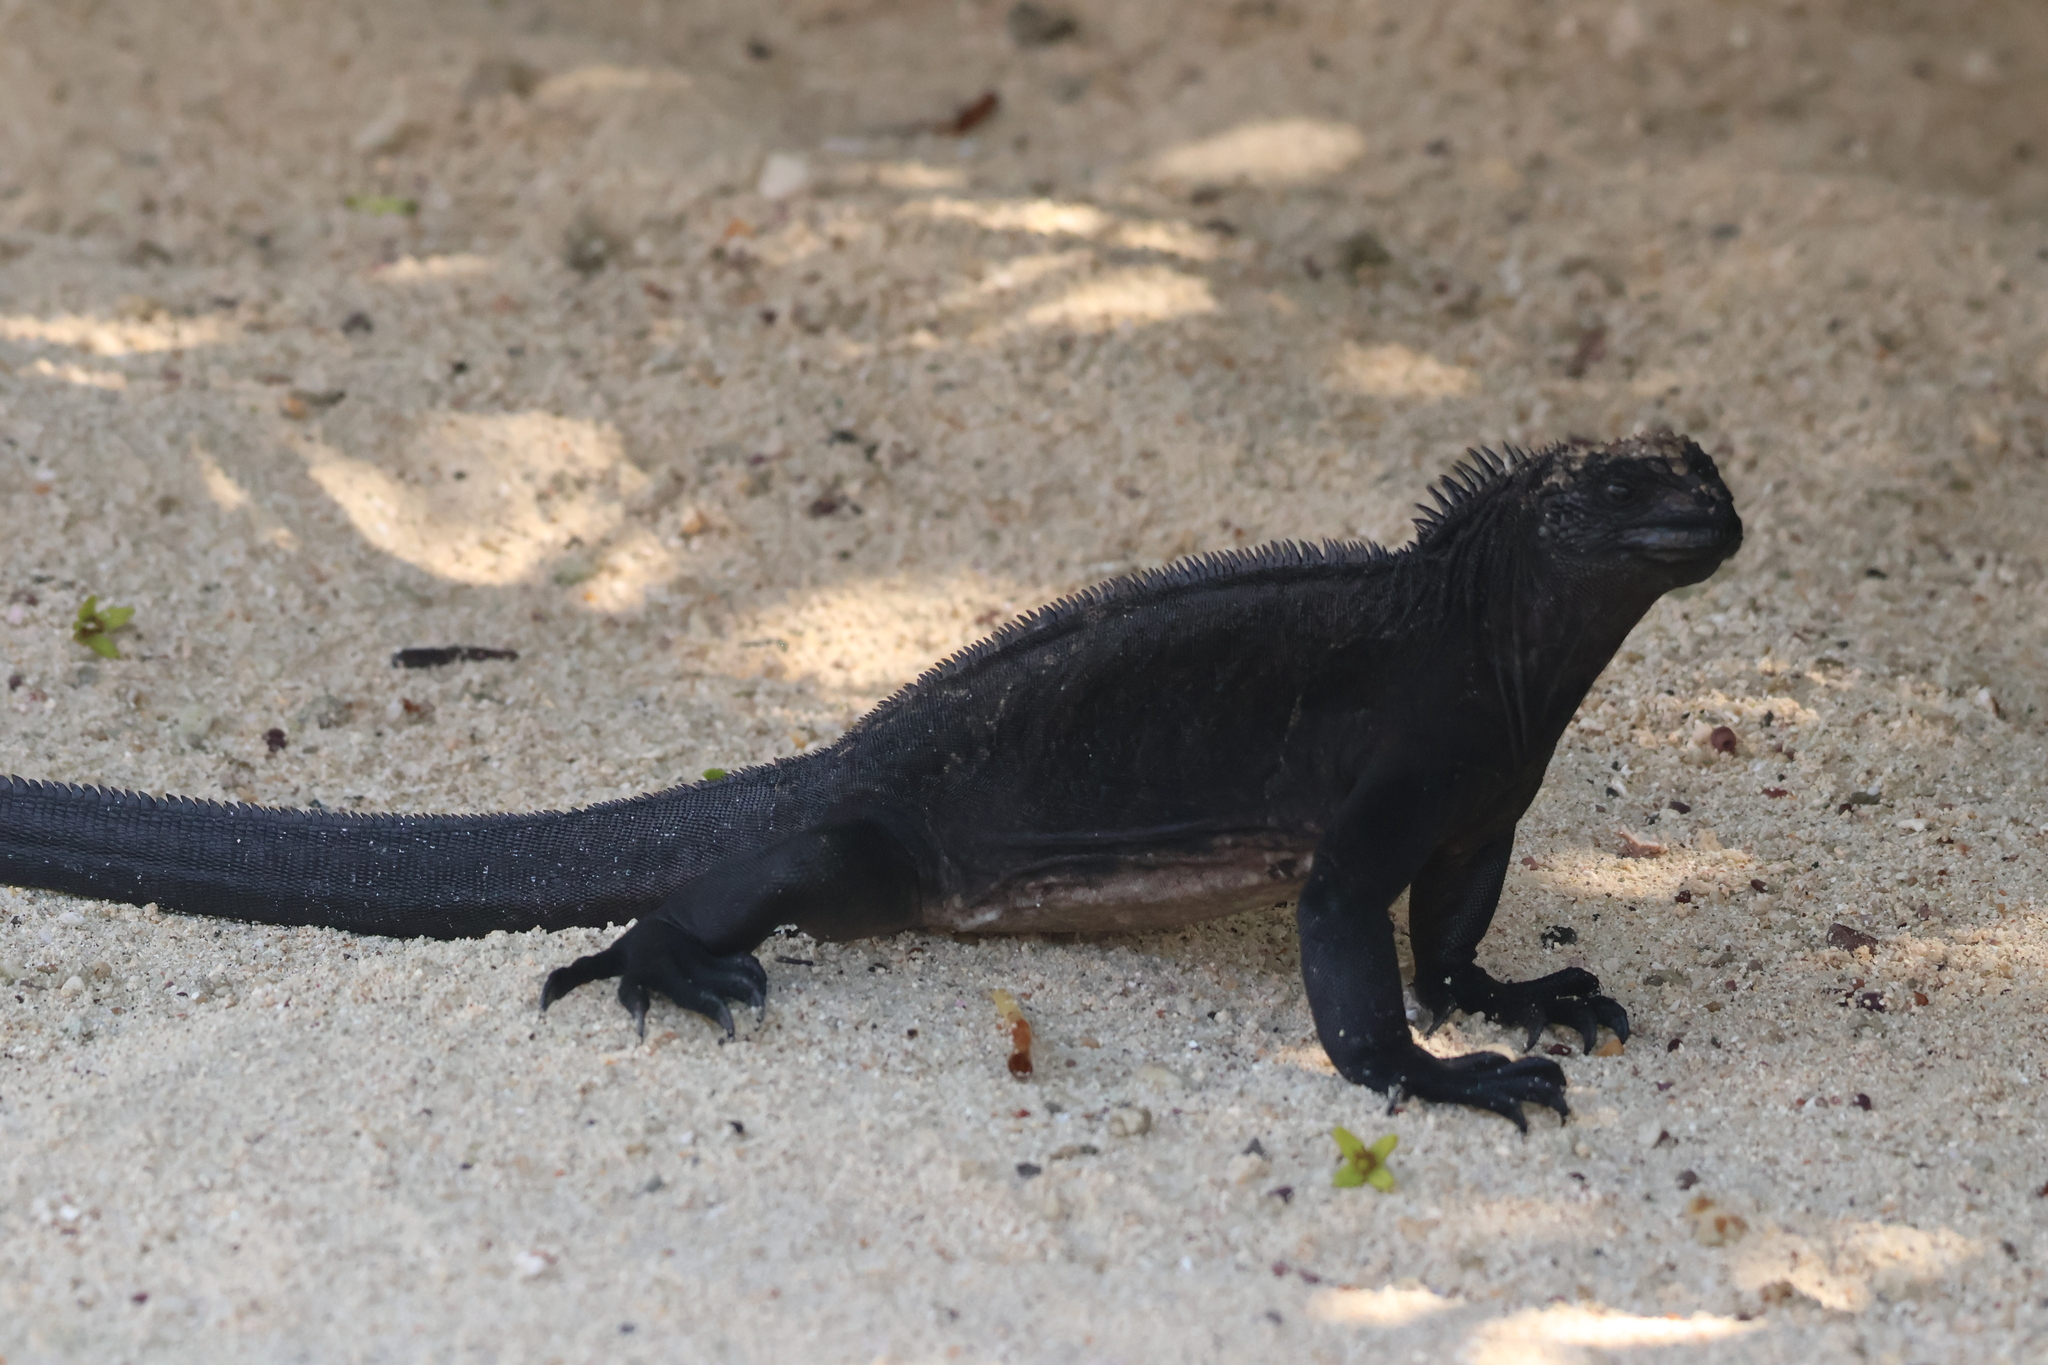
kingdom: Animalia
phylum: Chordata
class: Squamata
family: Iguanidae
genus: Amblyrhynchus
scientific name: Amblyrhynchus cristatus
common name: Marine iguana
